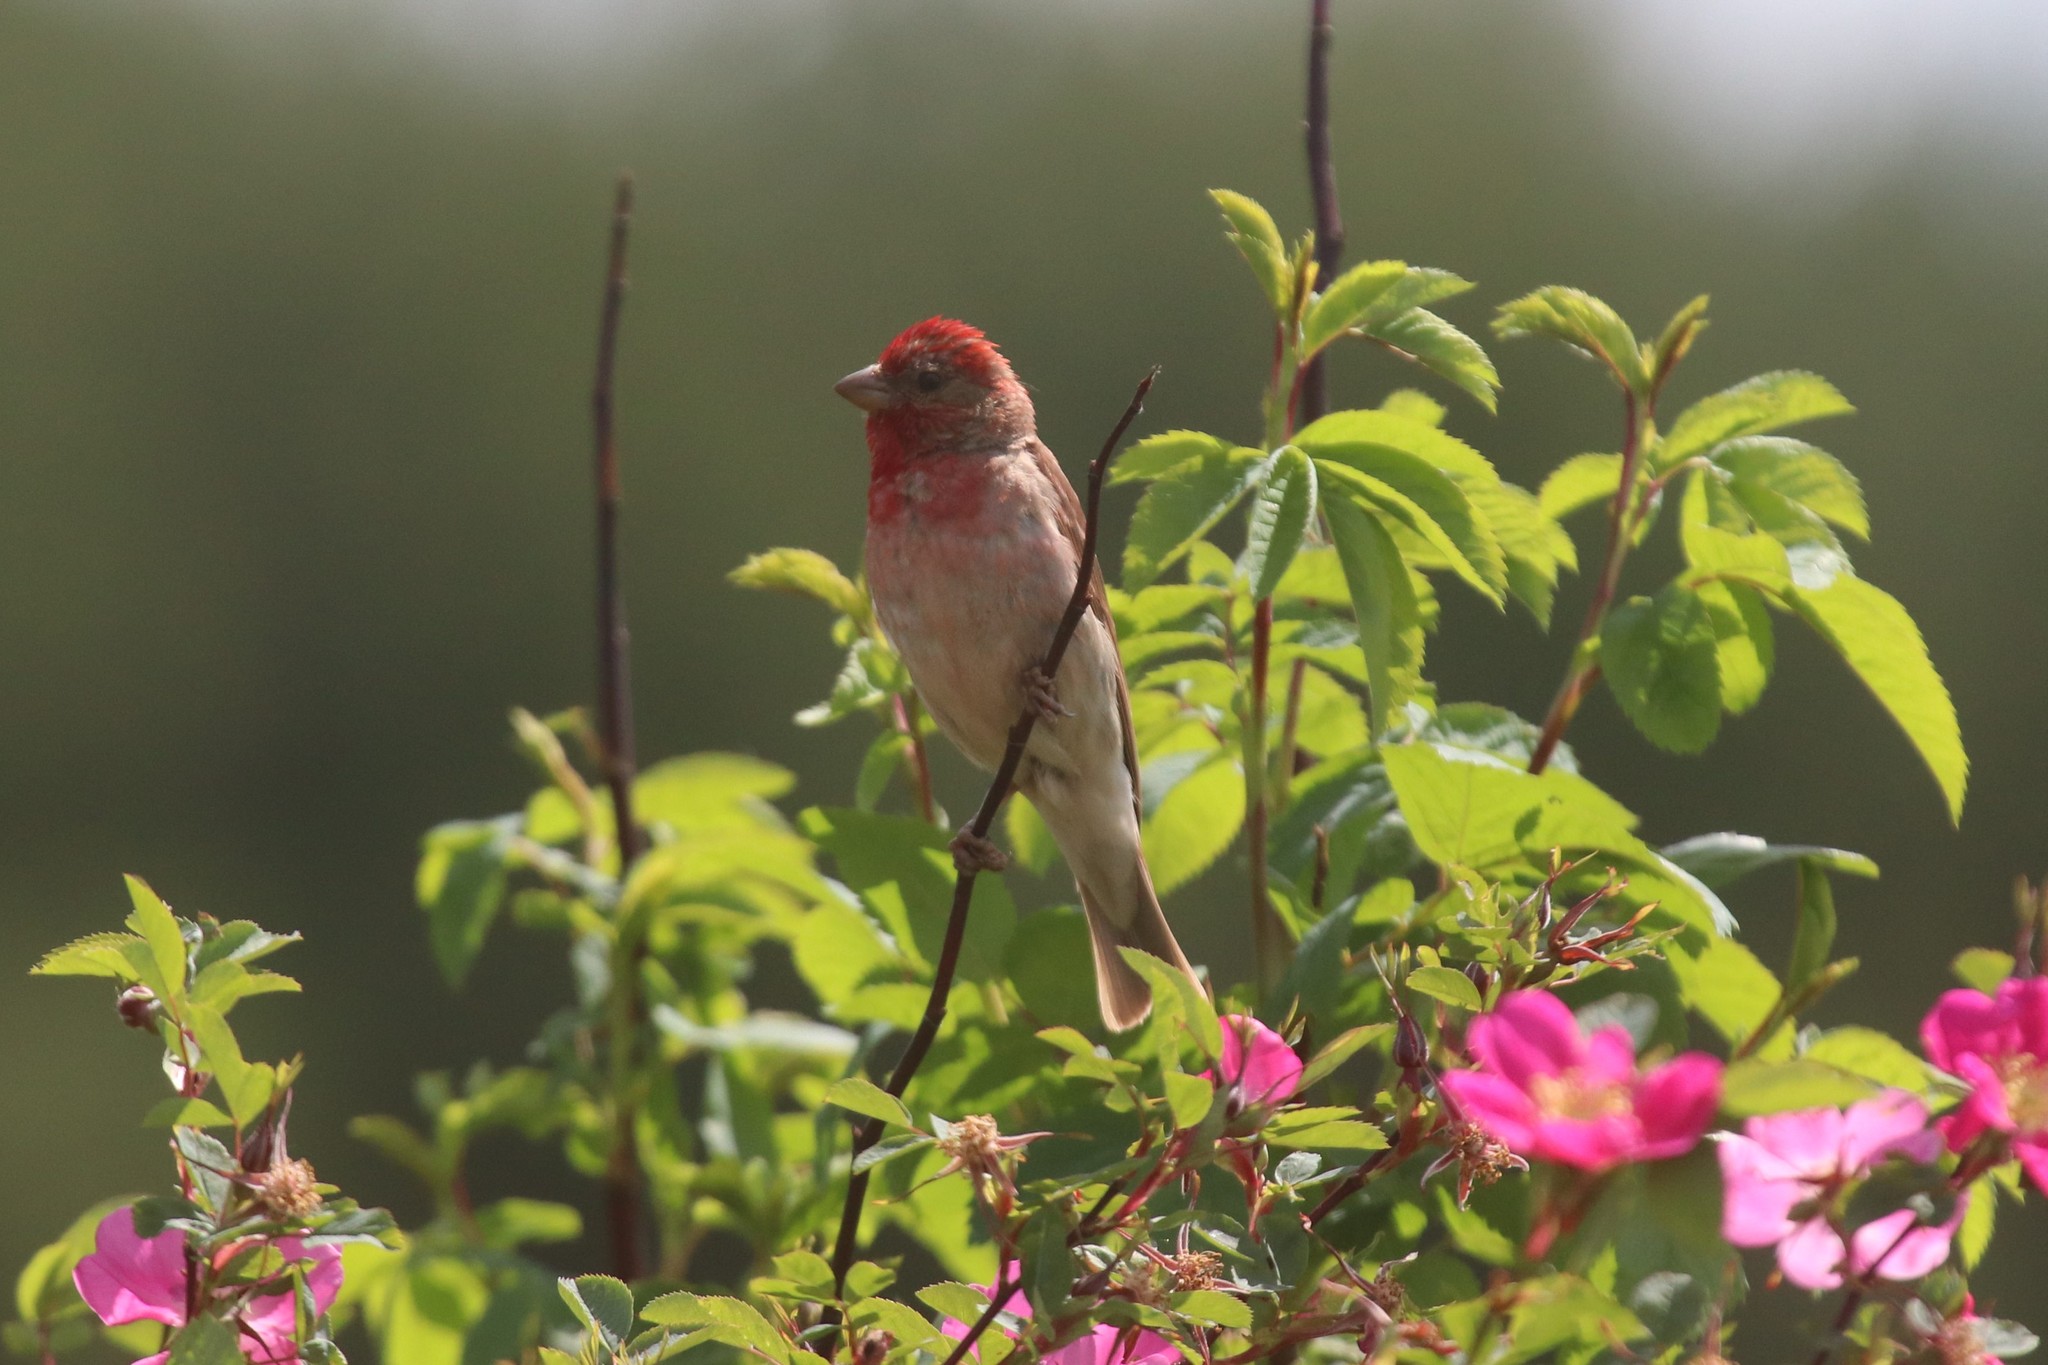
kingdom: Animalia
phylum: Chordata
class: Aves
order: Passeriformes
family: Fringillidae
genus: Carpodacus
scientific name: Carpodacus erythrinus
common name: Common rosefinch
